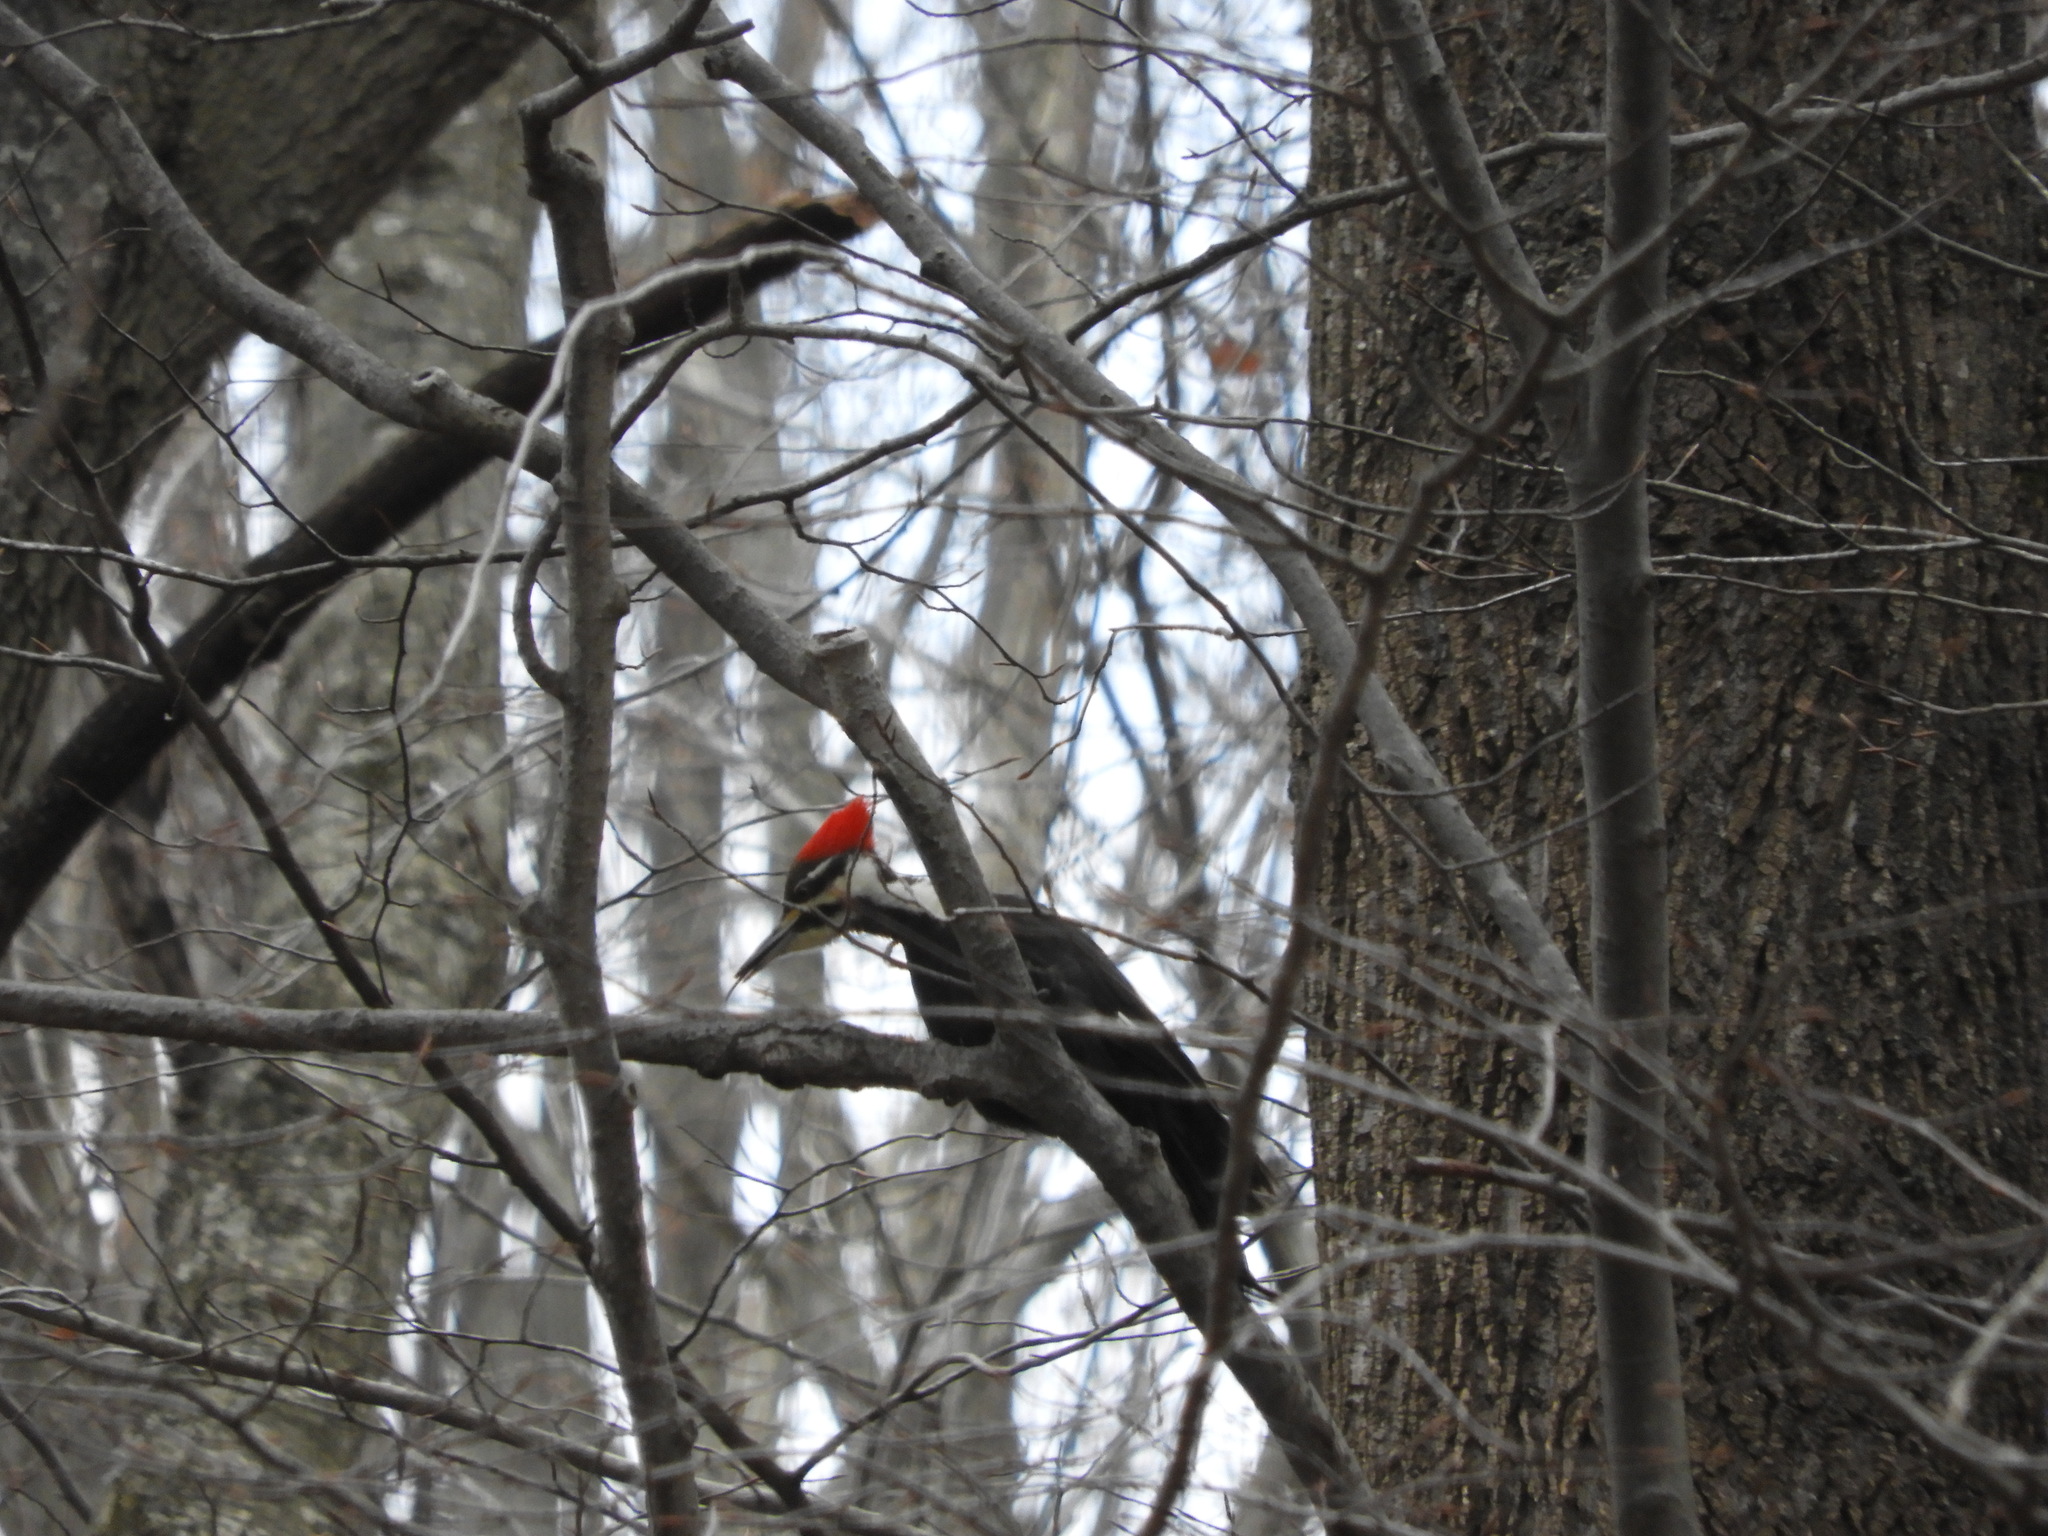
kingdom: Animalia
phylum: Chordata
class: Aves
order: Piciformes
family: Picidae
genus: Dryocopus
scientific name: Dryocopus pileatus
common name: Pileated woodpecker
